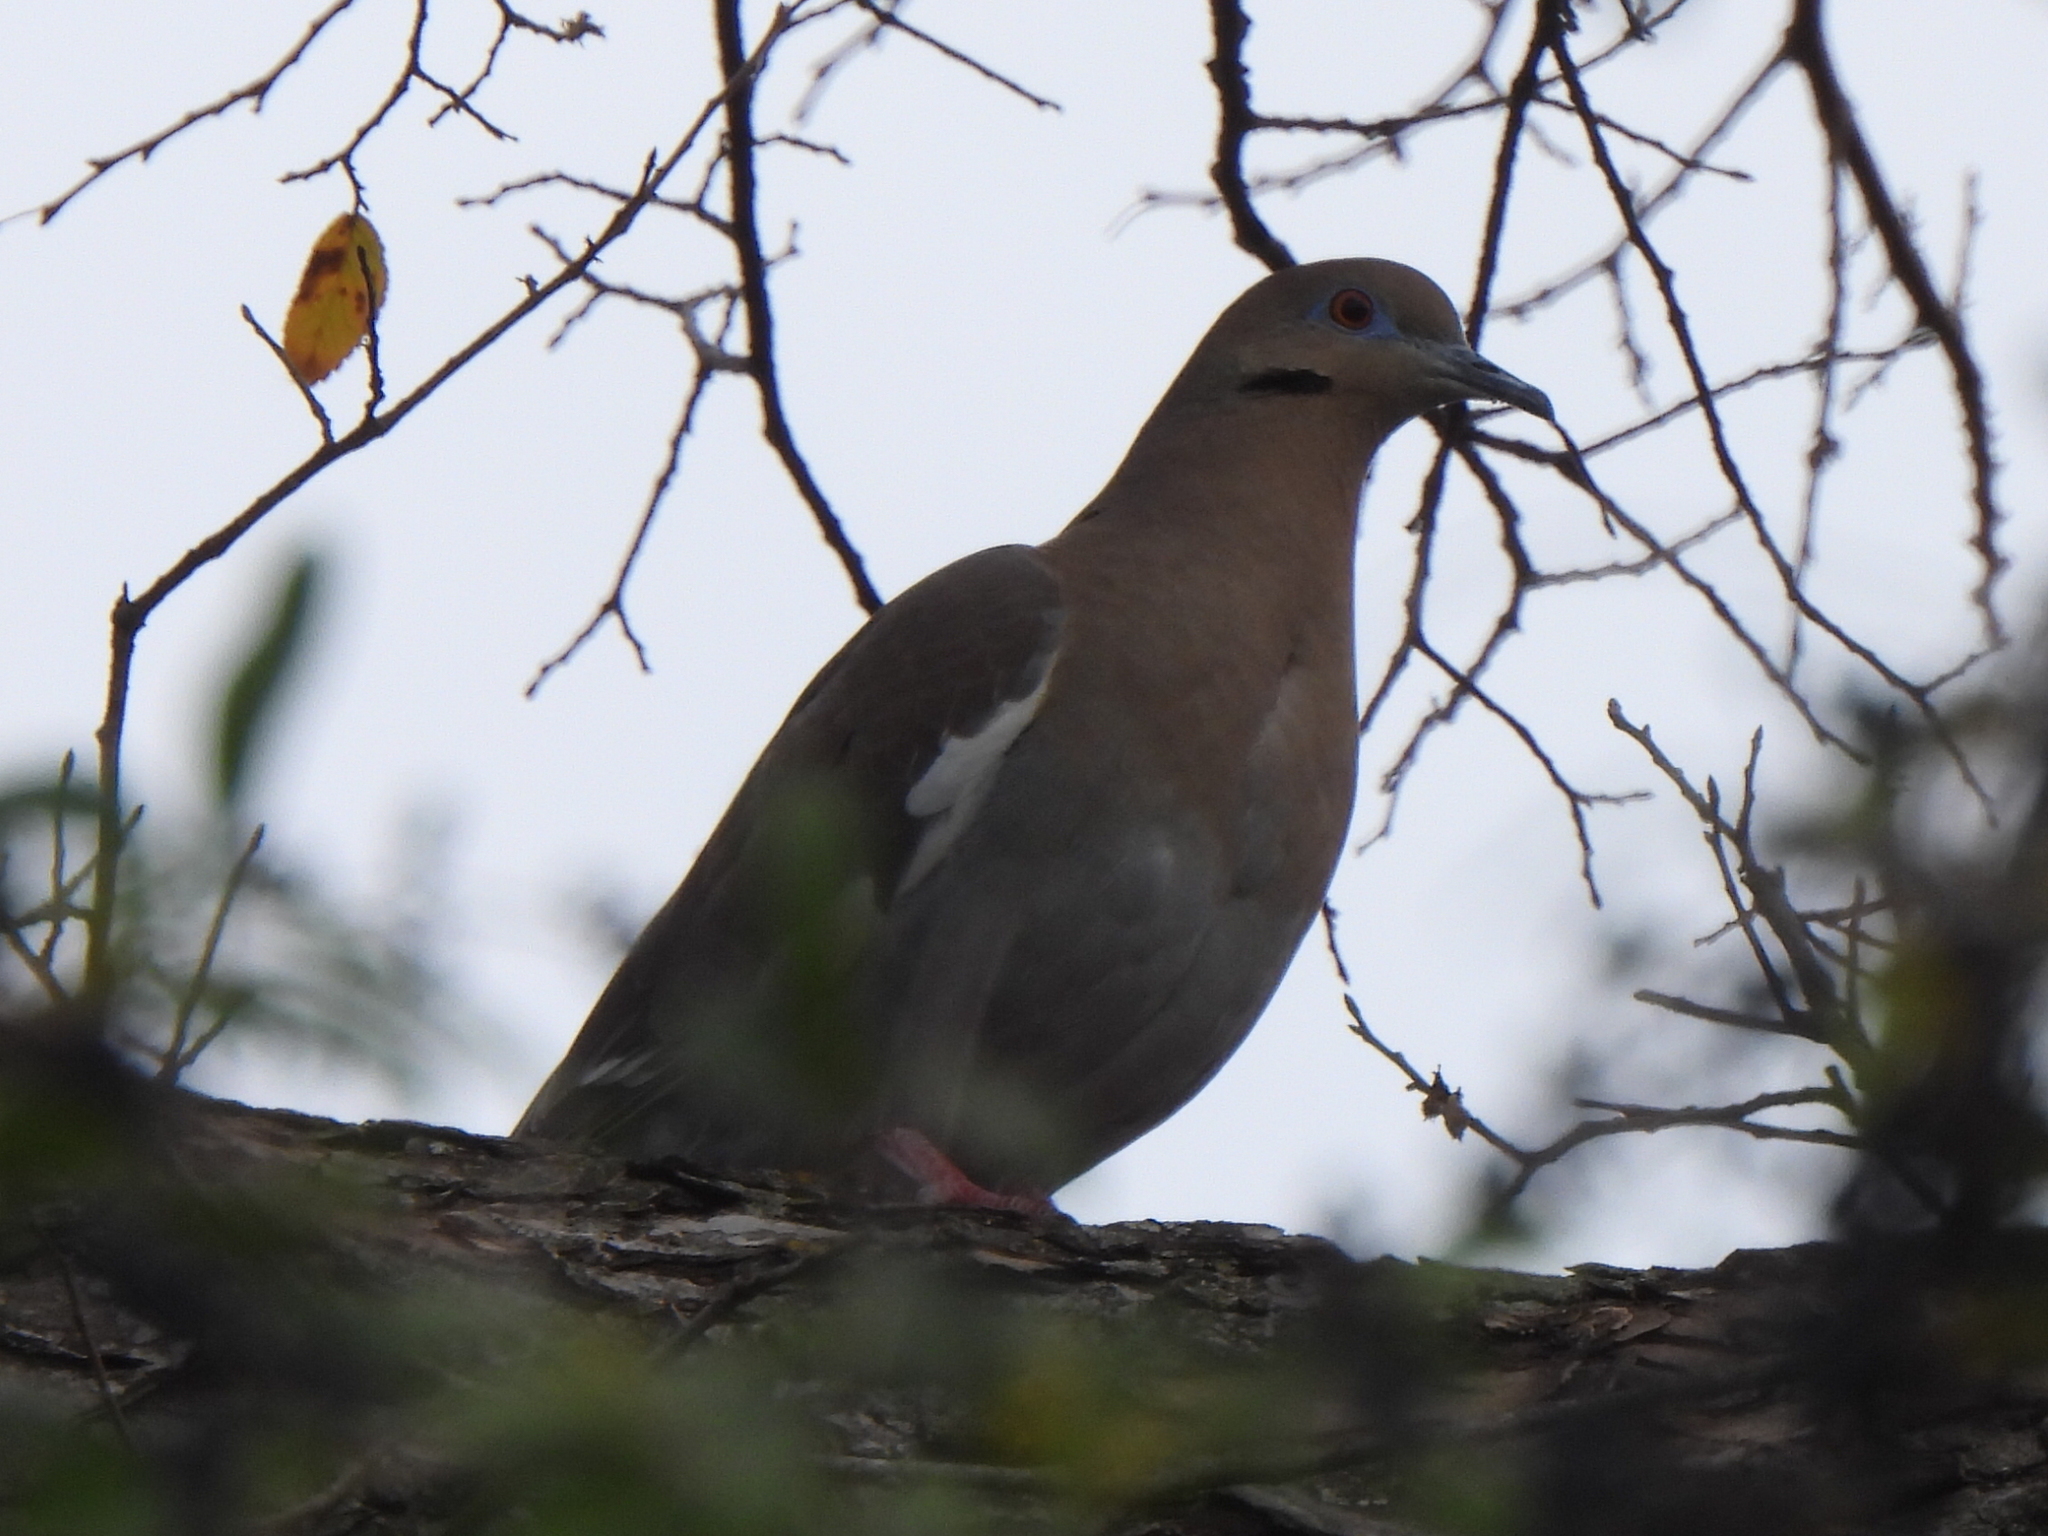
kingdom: Animalia
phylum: Chordata
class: Aves
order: Columbiformes
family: Columbidae
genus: Zenaida
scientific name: Zenaida asiatica
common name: White-winged dove
